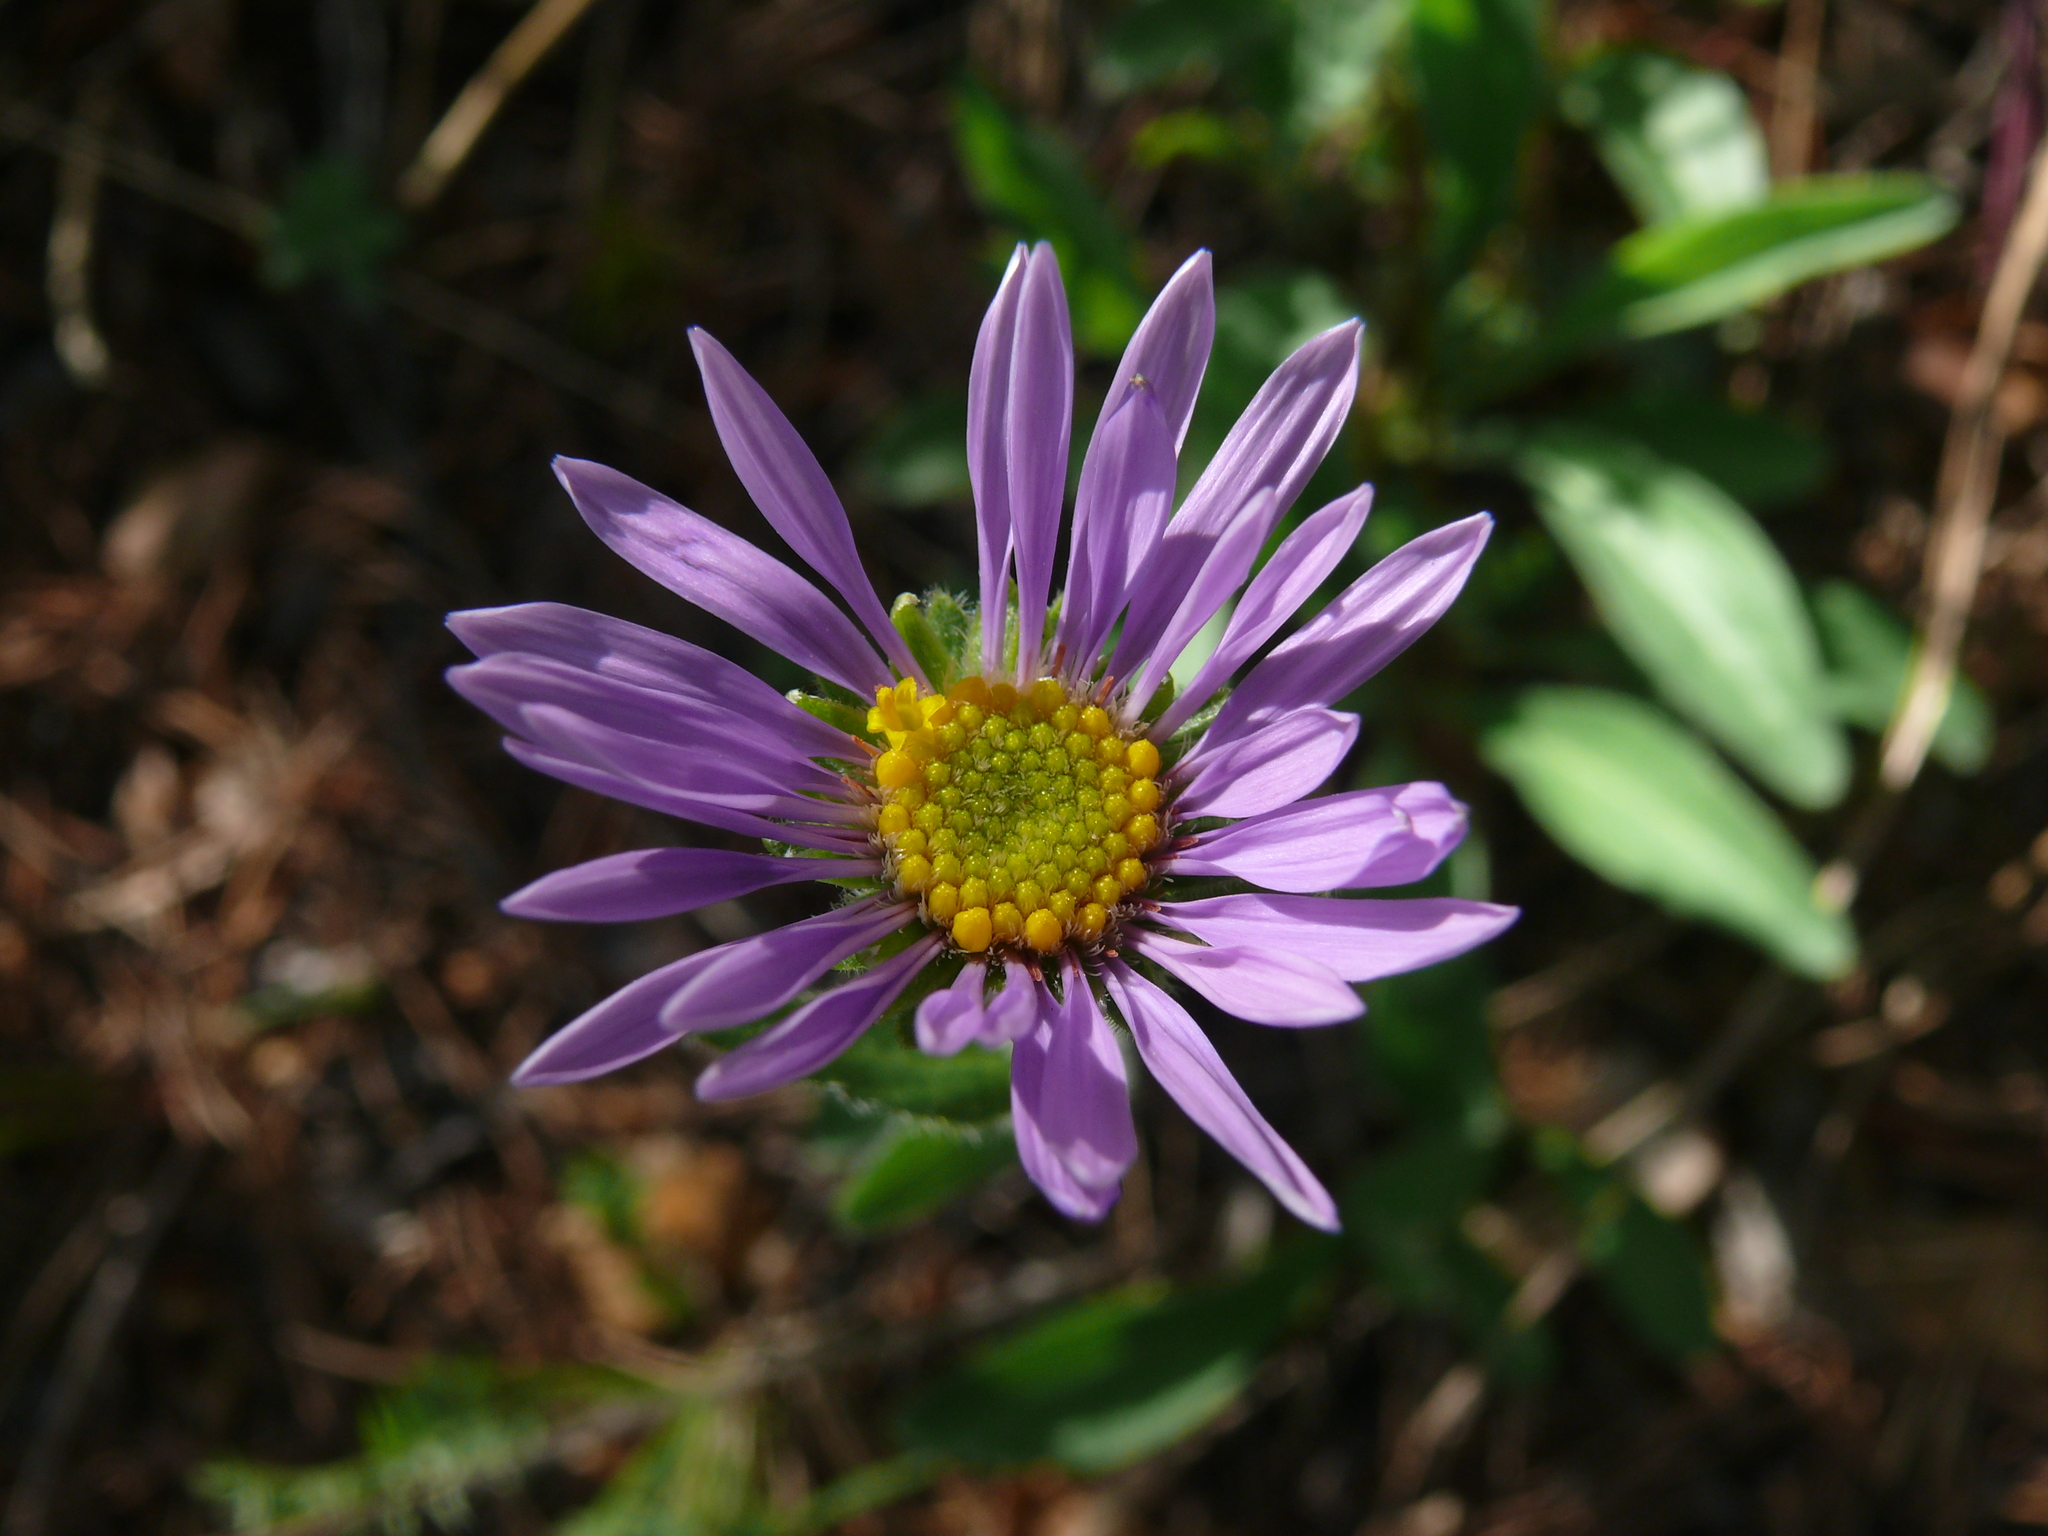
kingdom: Plantae
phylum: Tracheophyta
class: Magnoliopsida
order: Asterales
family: Asteraceae
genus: Aster
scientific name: Aster alpinus
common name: Alpine aster
